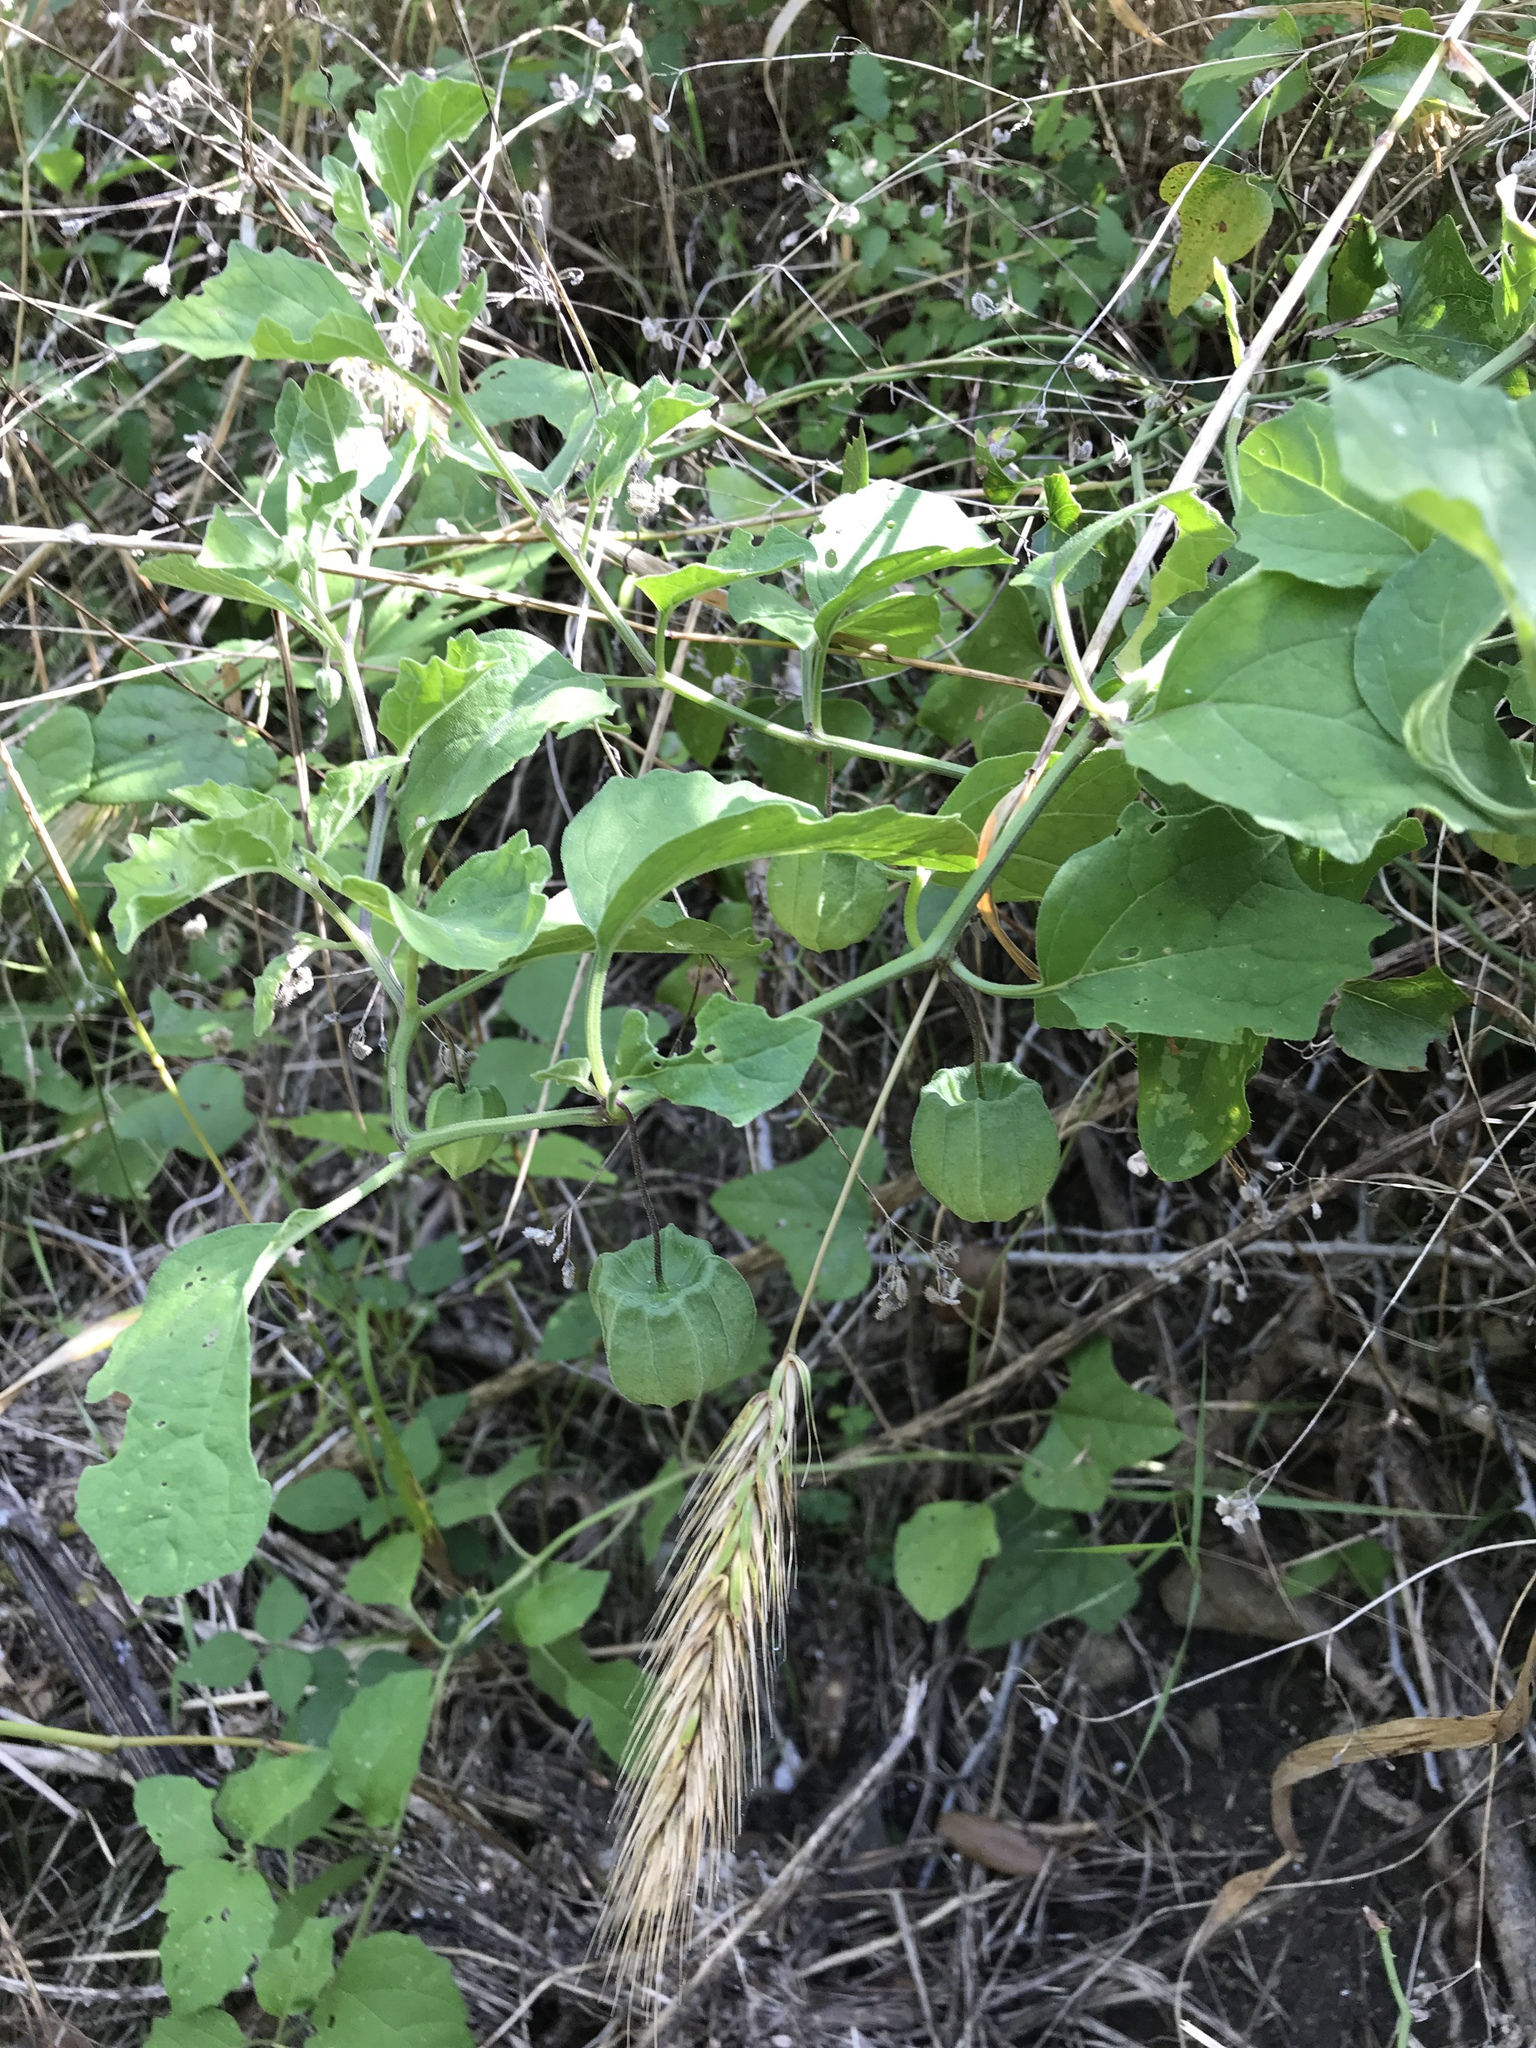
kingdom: Plantae
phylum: Tracheophyta
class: Magnoliopsida
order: Fabales
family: Fabaceae
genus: Strophostyles
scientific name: Strophostyles helvola
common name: Trailing wild bean
